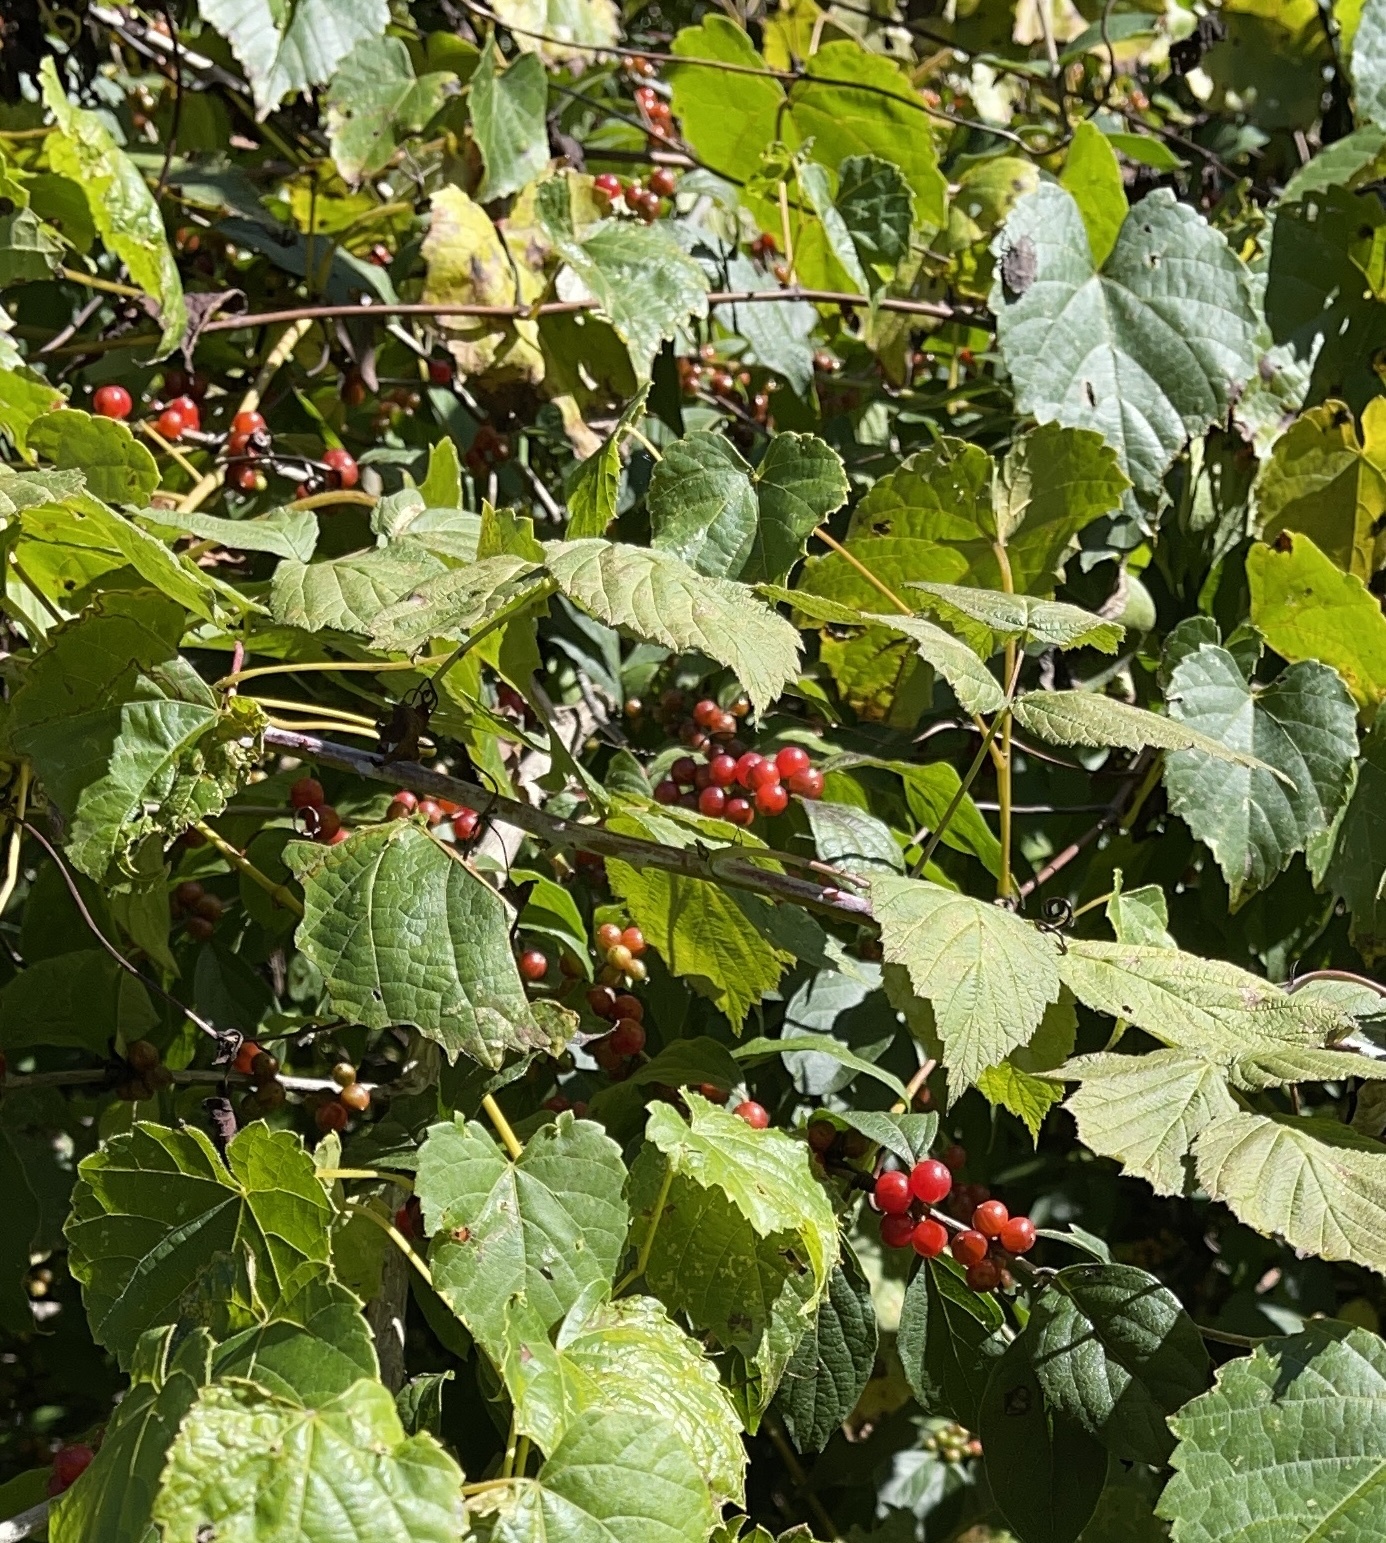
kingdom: Plantae
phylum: Tracheophyta
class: Magnoliopsida
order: Dipsacales
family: Caprifoliaceae
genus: Lonicera
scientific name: Lonicera maackii
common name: Amur honeysuckle
